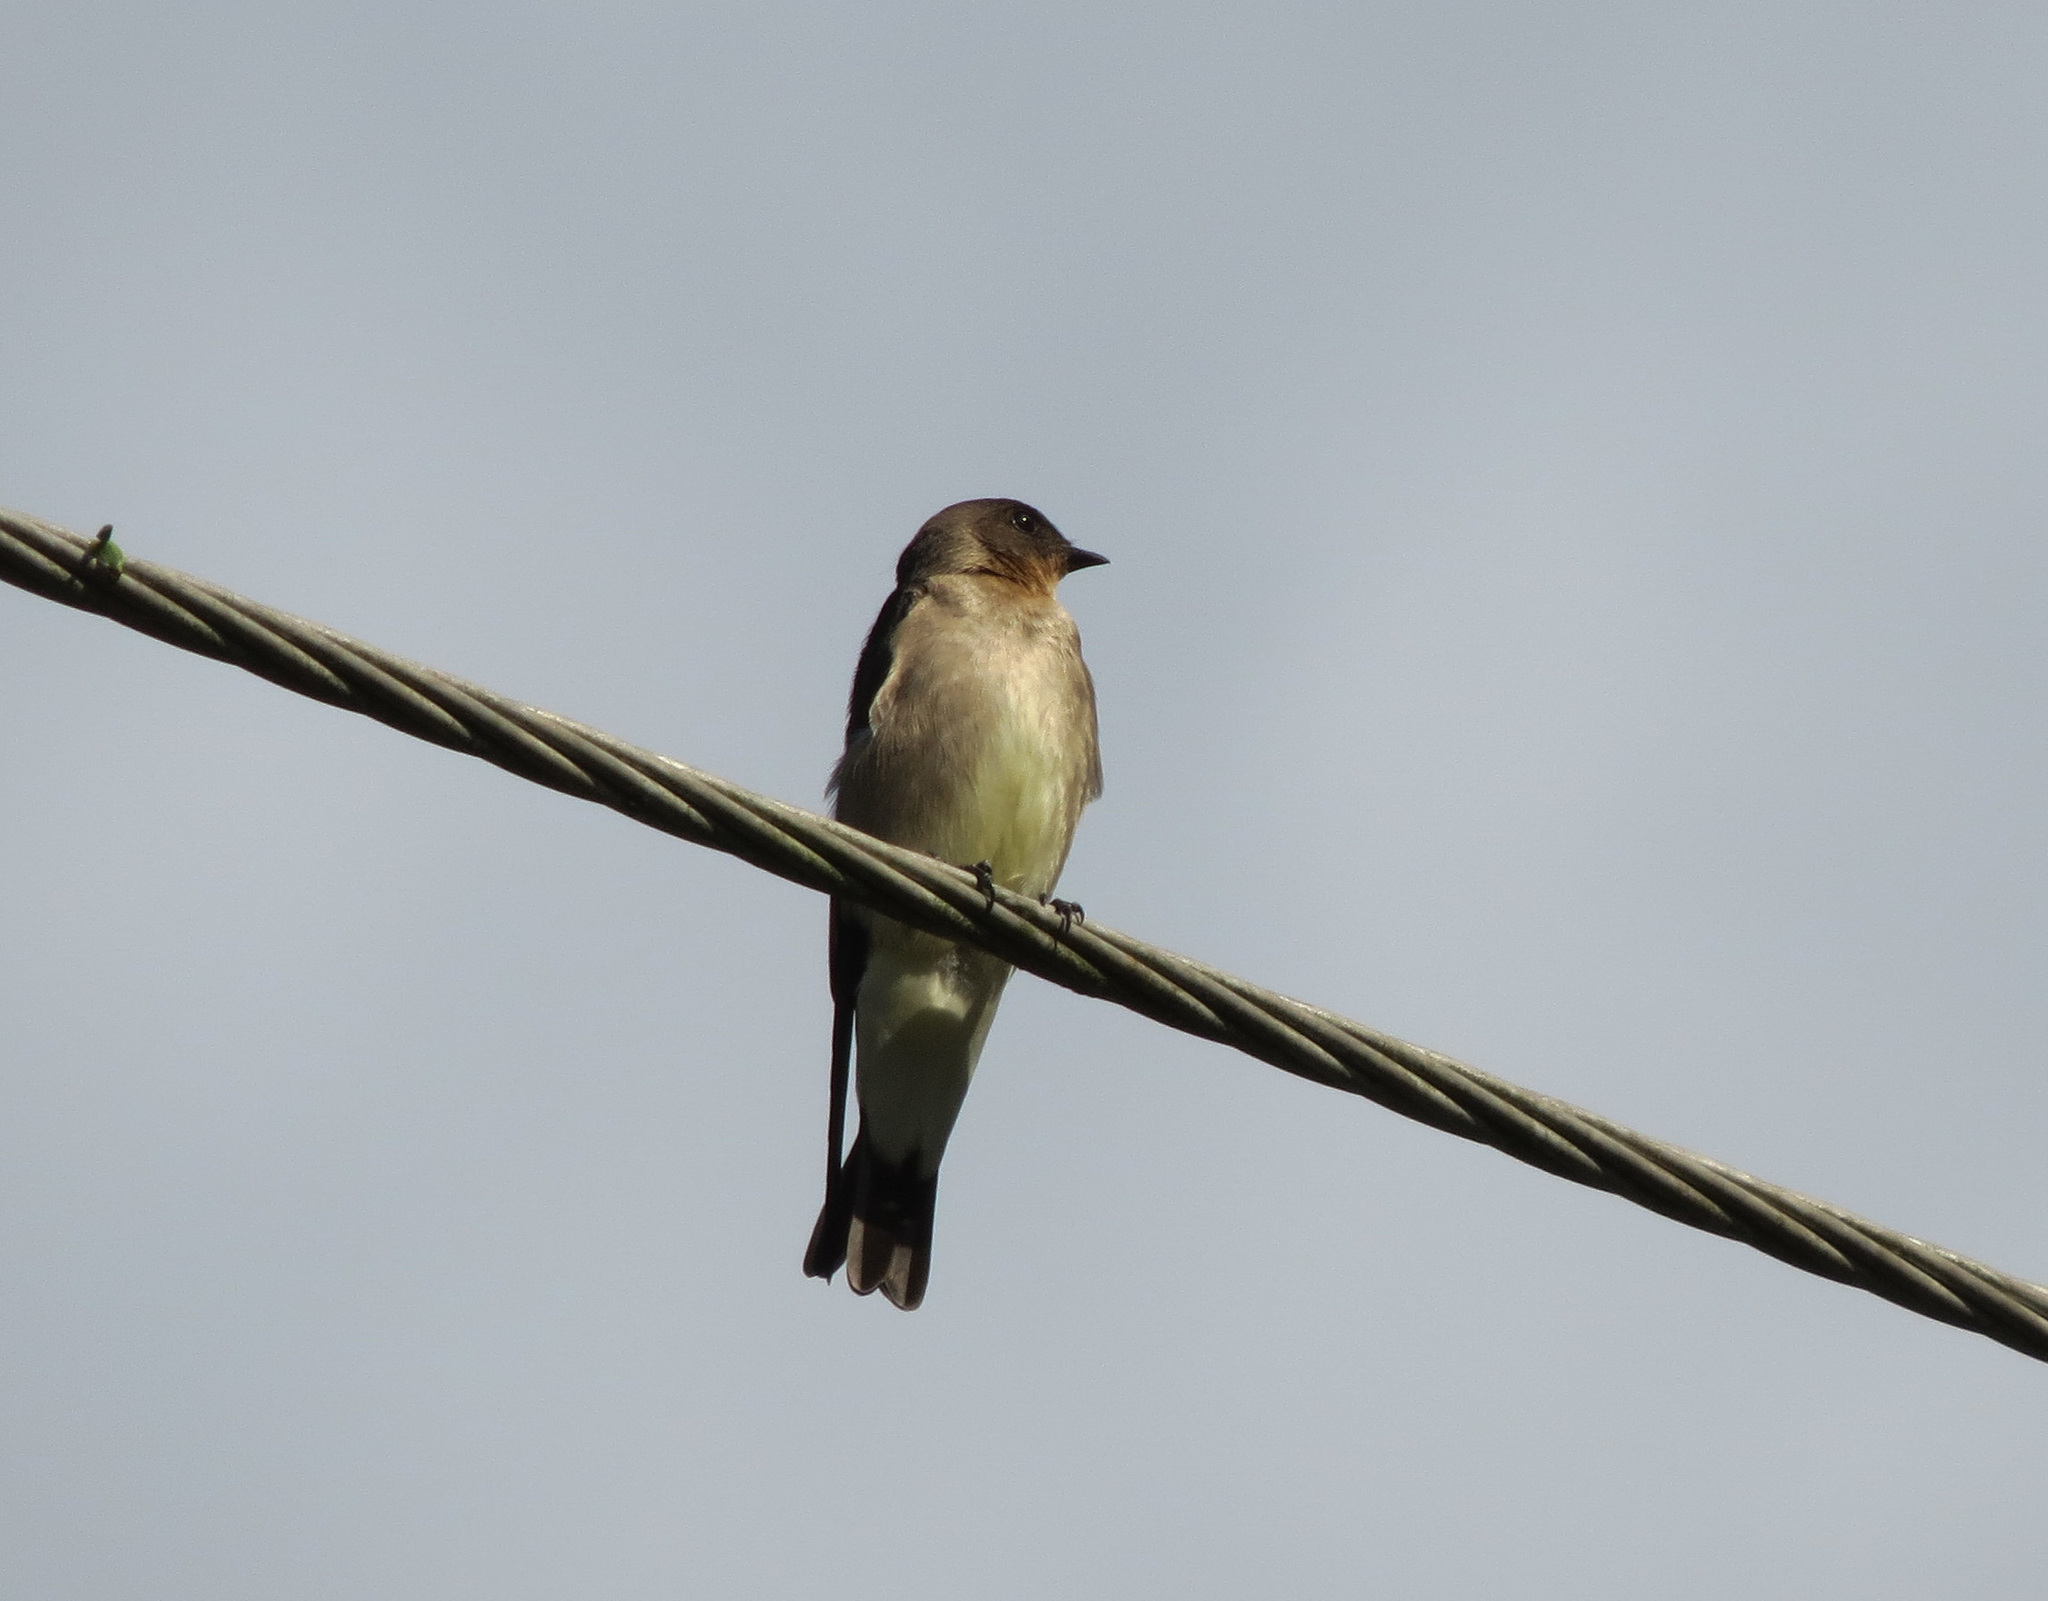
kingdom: Animalia
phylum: Chordata
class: Aves
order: Passeriformes
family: Hirundinidae
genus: Stelgidopteryx
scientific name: Stelgidopteryx ruficollis
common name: Southern rough-winged swallow
